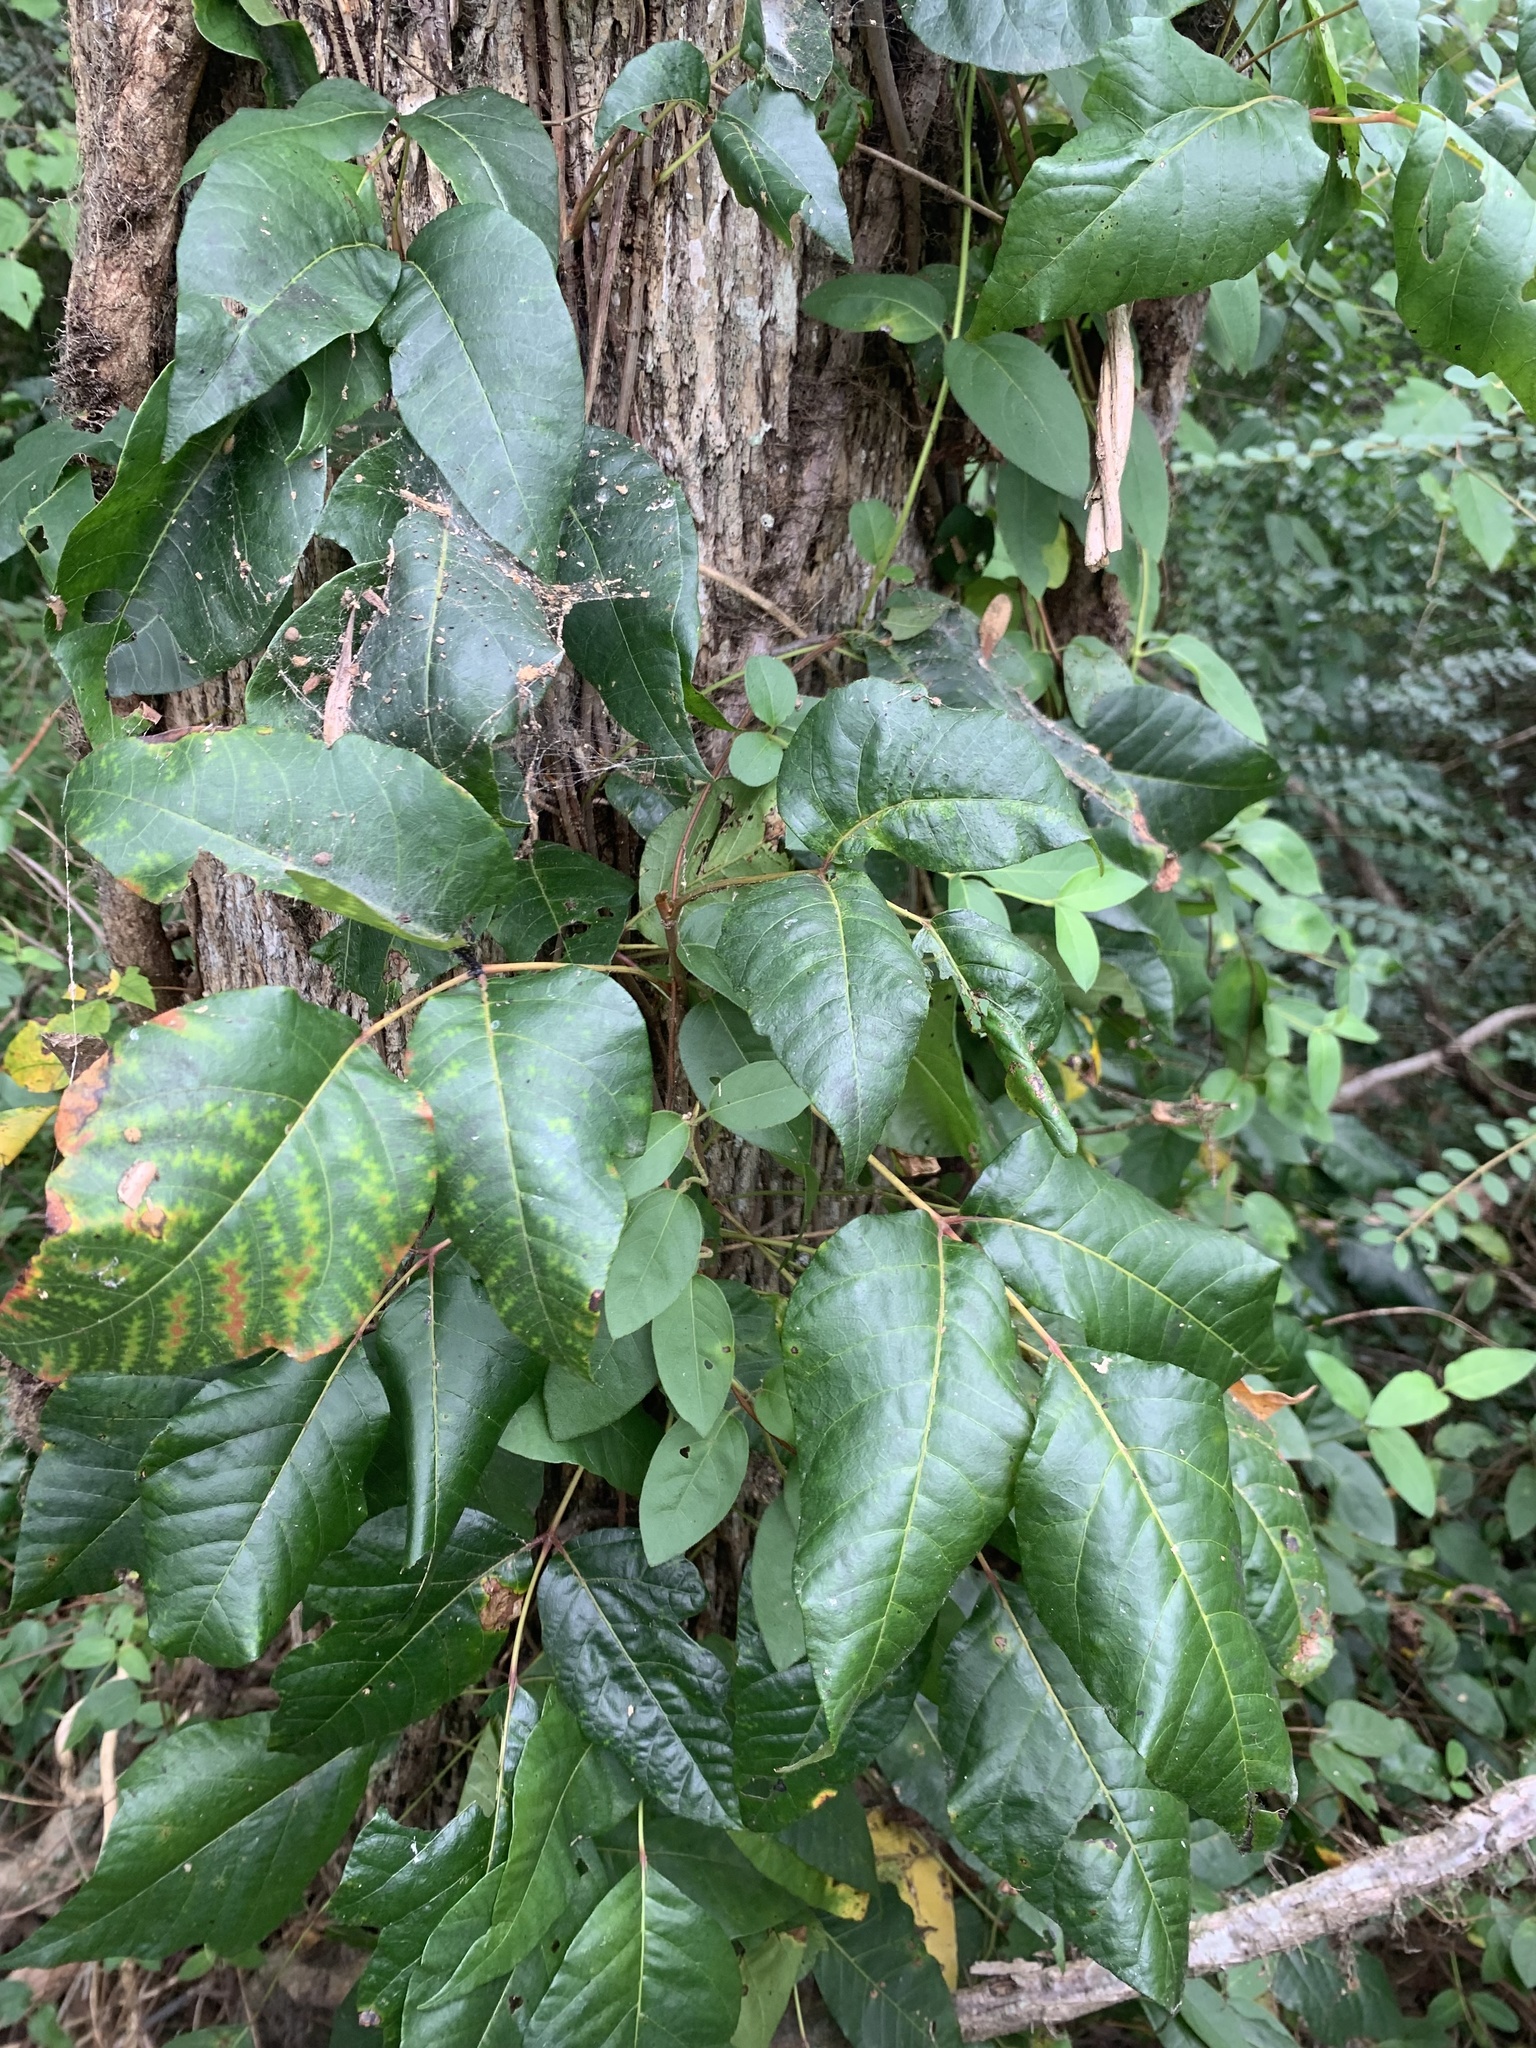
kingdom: Plantae
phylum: Tracheophyta
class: Magnoliopsida
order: Sapindales
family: Anacardiaceae
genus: Toxicodendron
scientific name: Toxicodendron radicans
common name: Poison ivy
